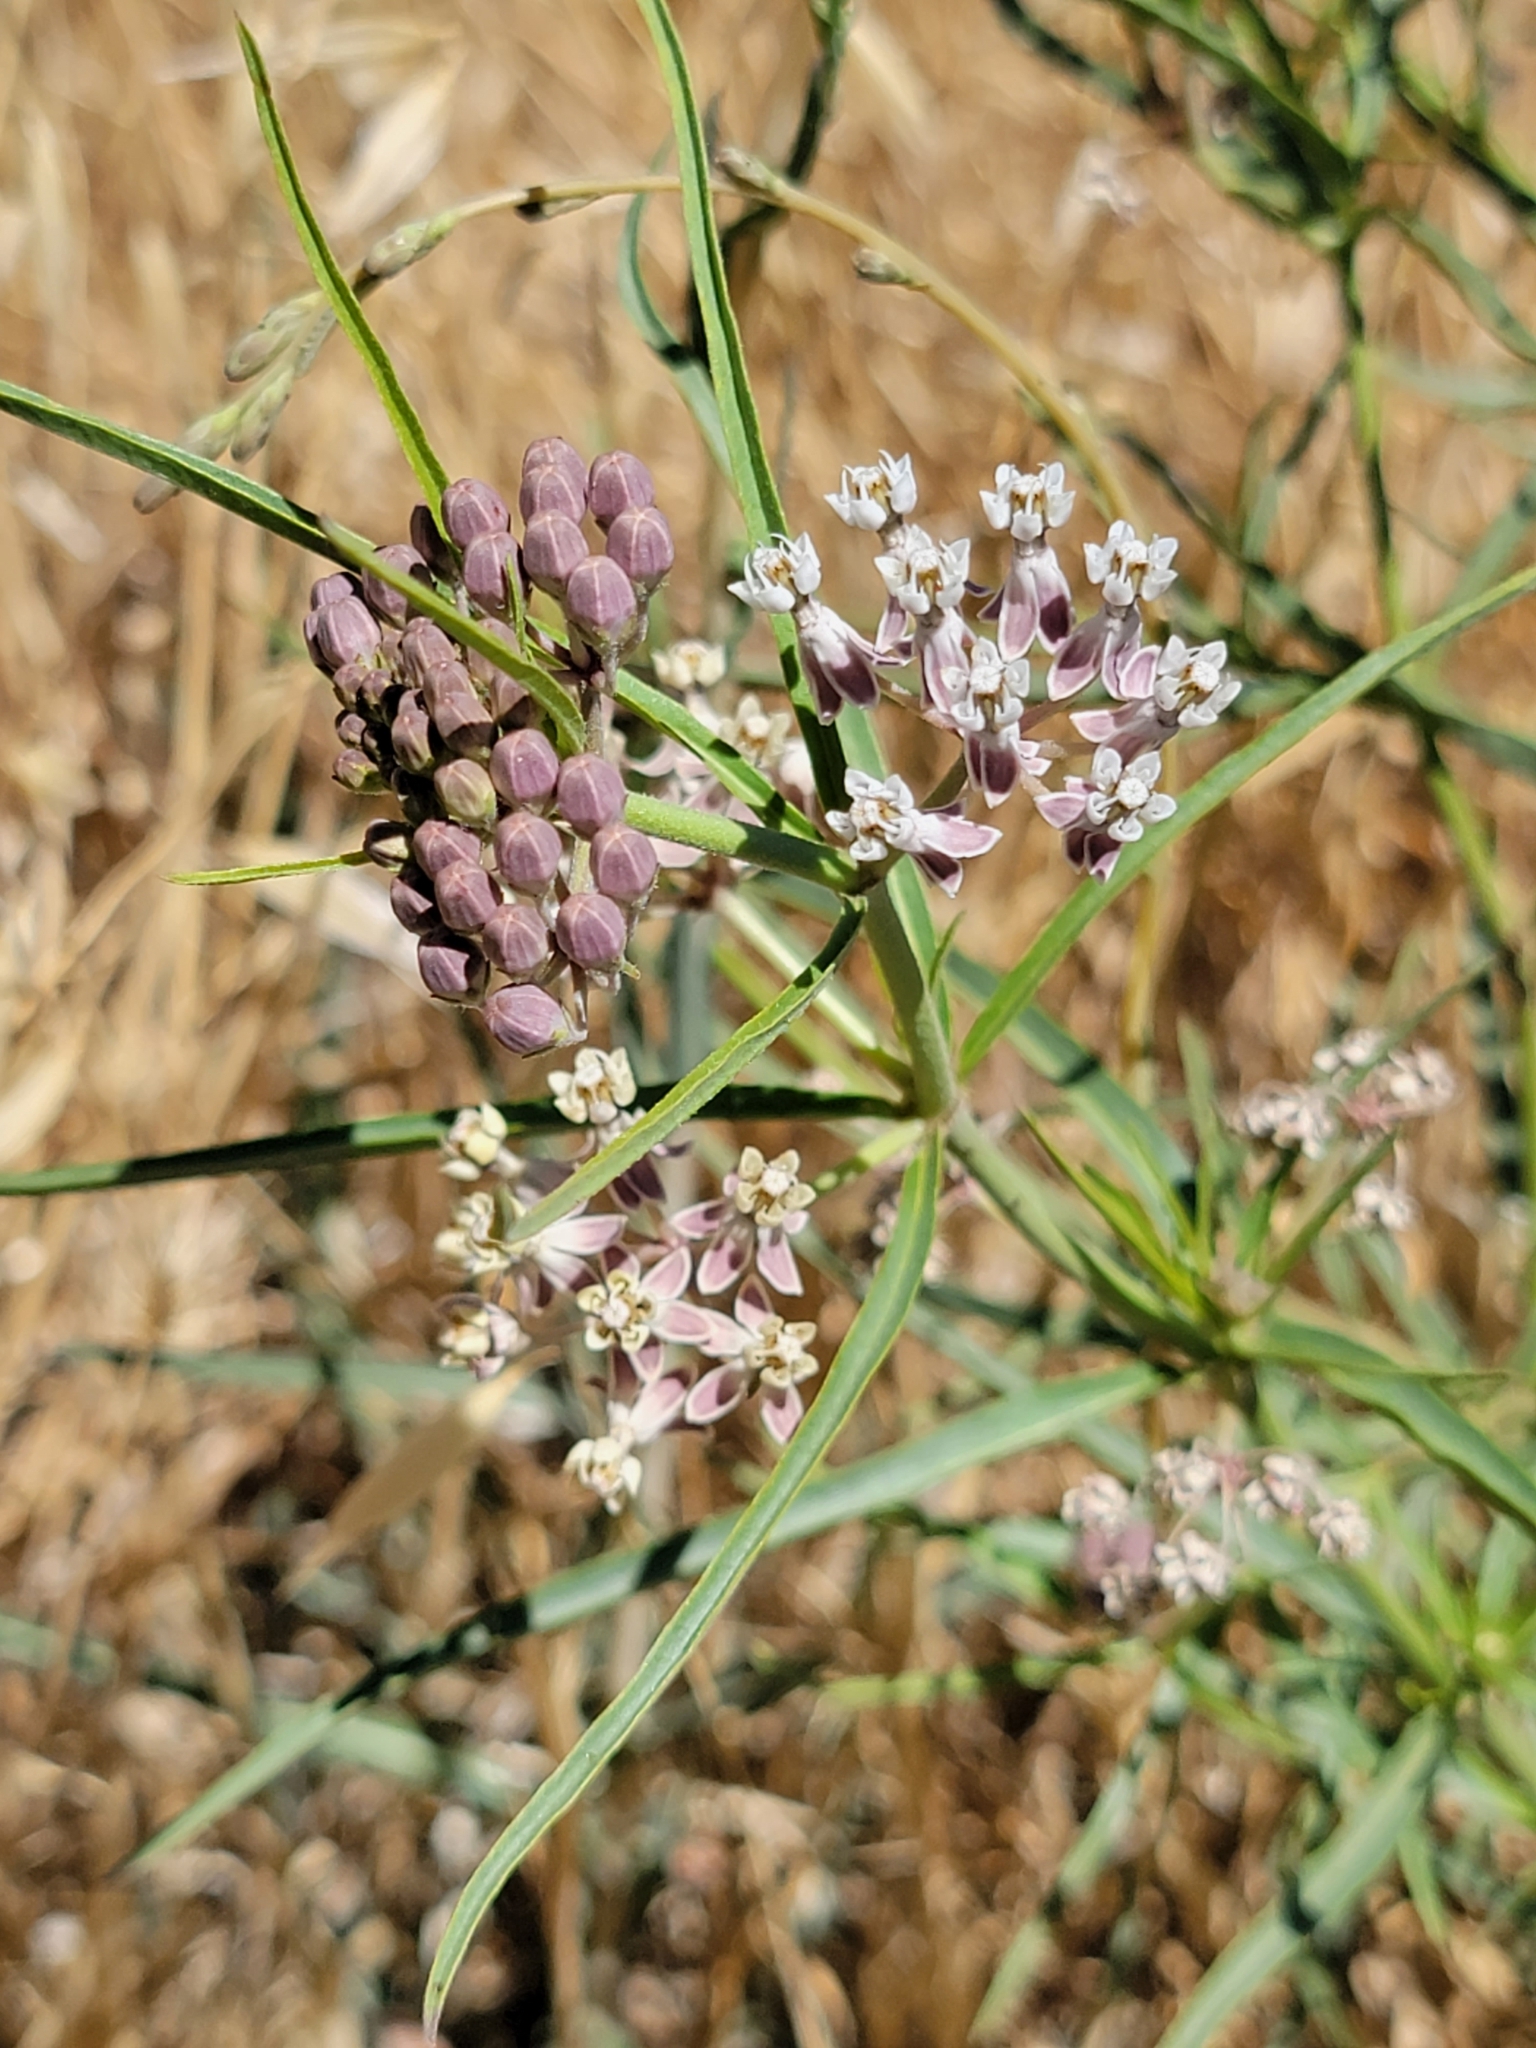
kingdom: Plantae
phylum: Tracheophyta
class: Magnoliopsida
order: Gentianales
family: Apocynaceae
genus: Asclepias
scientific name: Asclepias fascicularis
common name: Mexican milkweed
